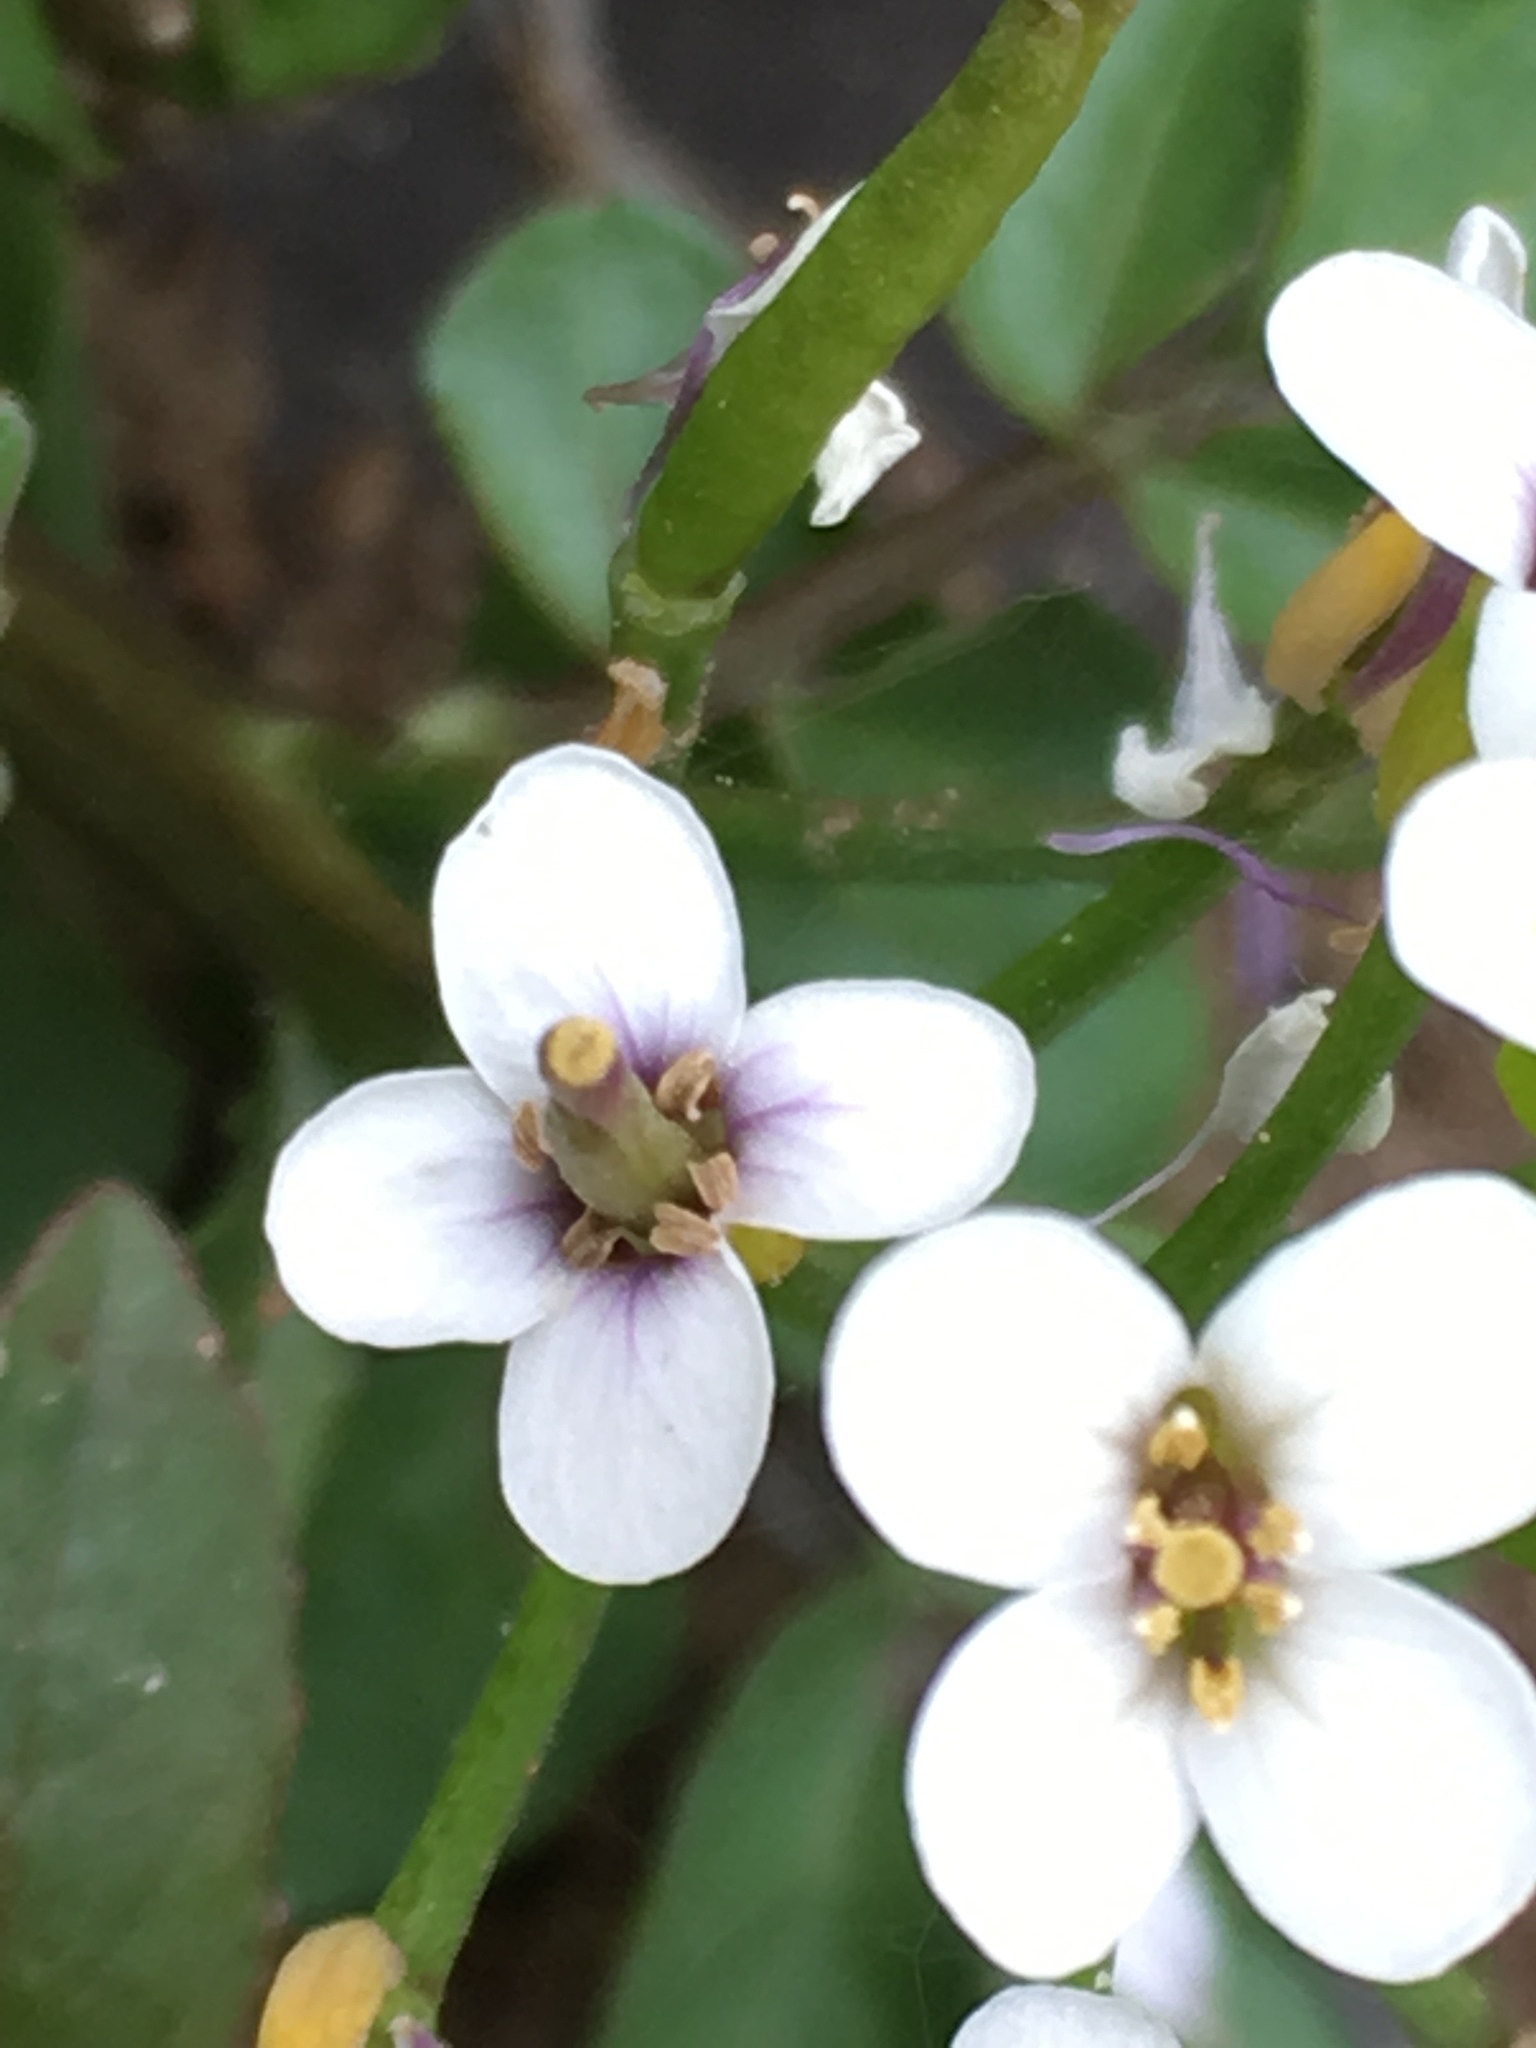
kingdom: Plantae
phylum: Tracheophyta
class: Magnoliopsida
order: Brassicales
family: Brassicaceae
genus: Nasturtium
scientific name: Nasturtium officinale
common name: Watercress
